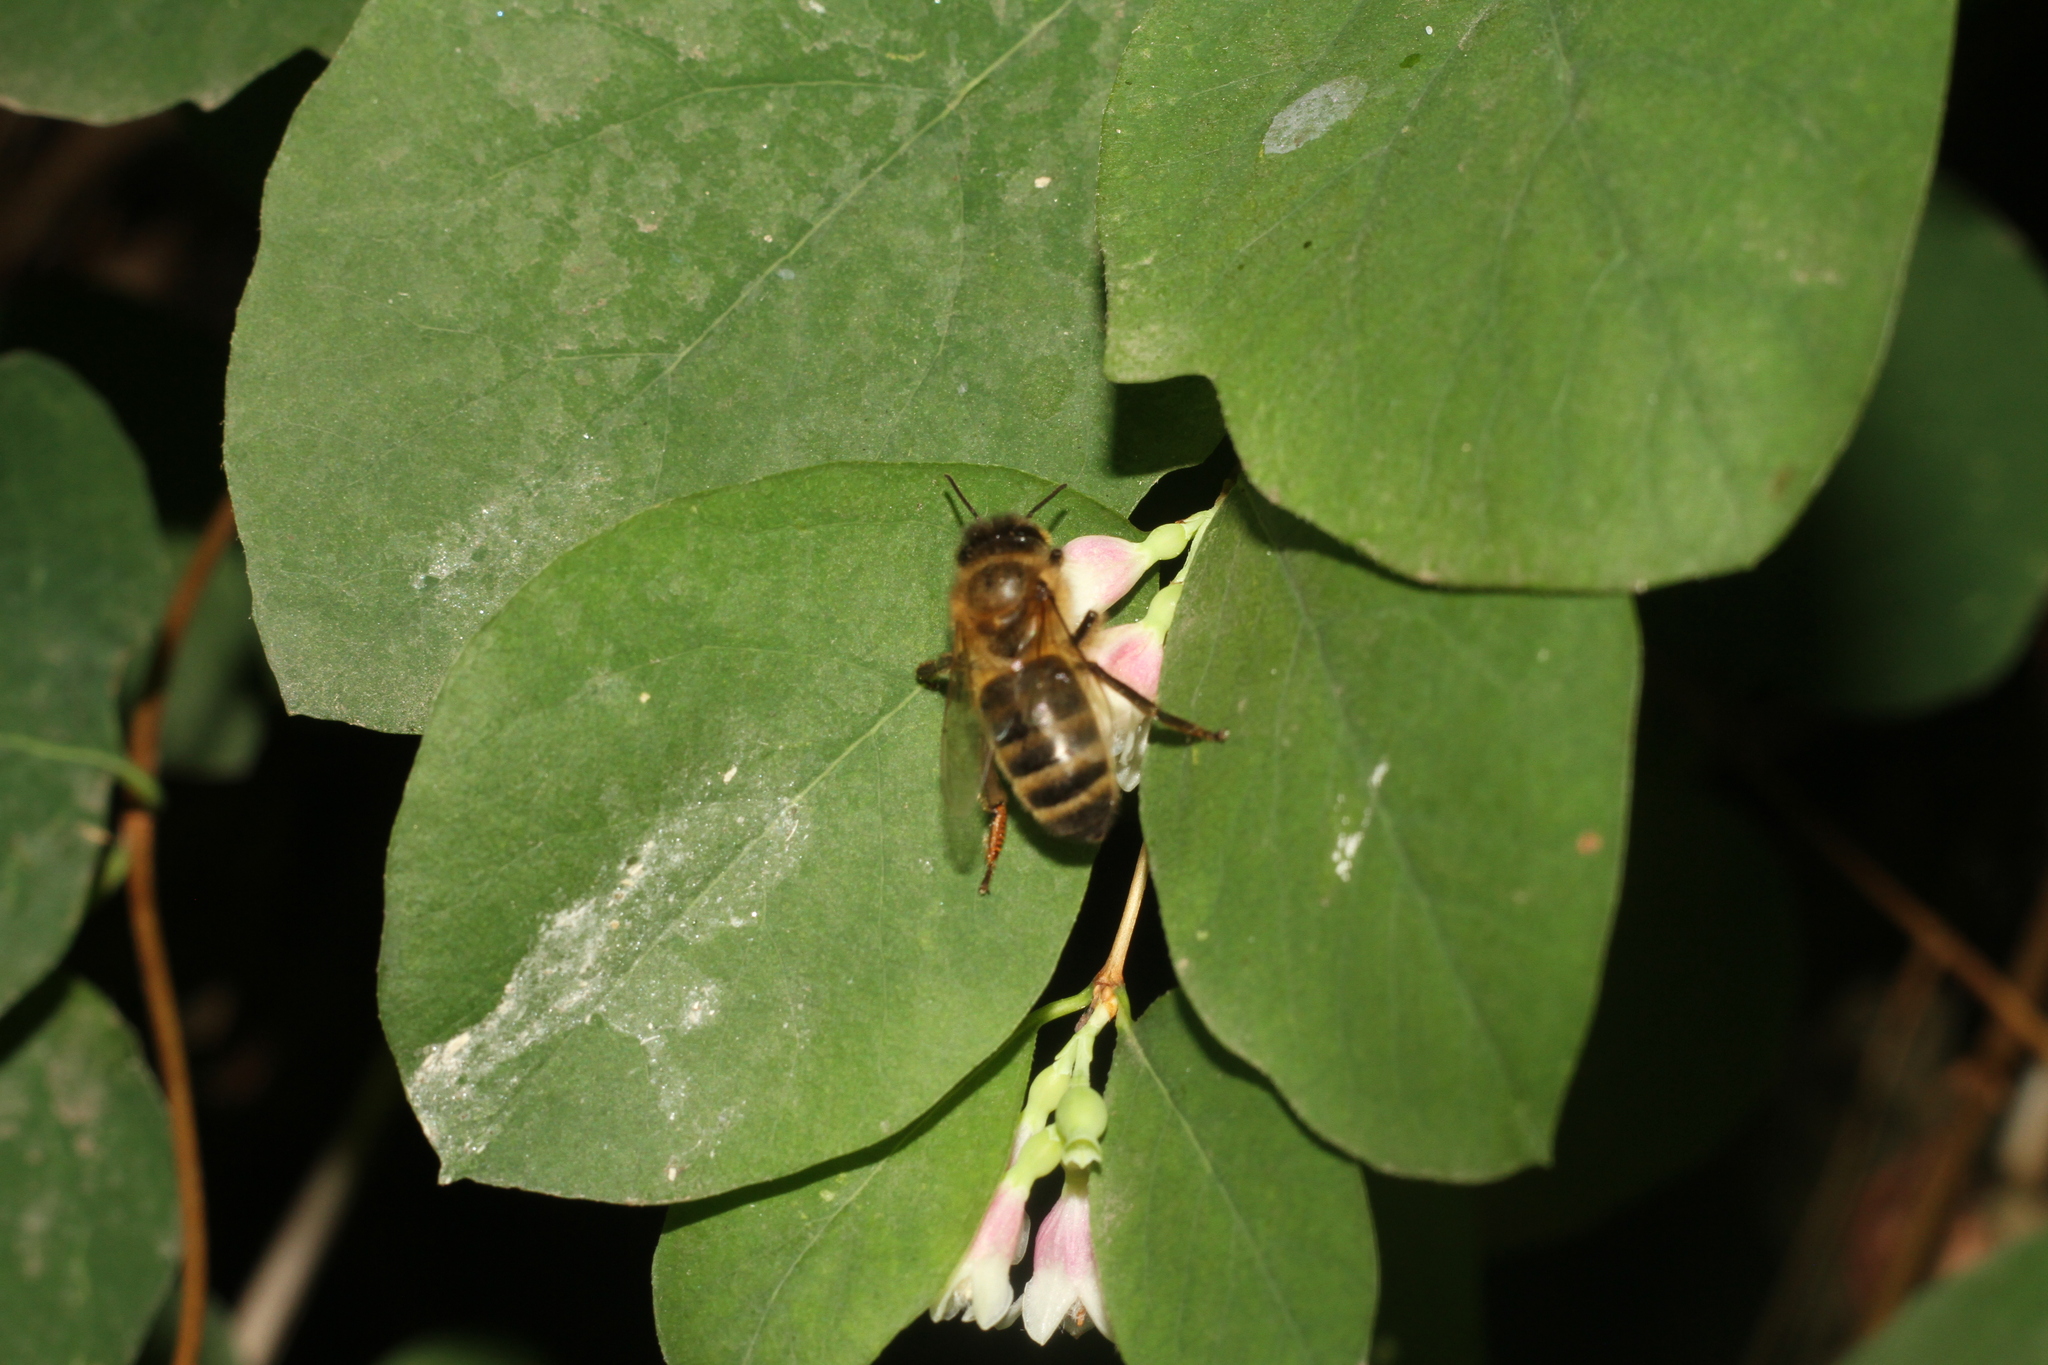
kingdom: Animalia
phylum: Arthropoda
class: Insecta
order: Hymenoptera
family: Apidae
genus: Apis
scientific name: Apis mellifera
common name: Honey bee
